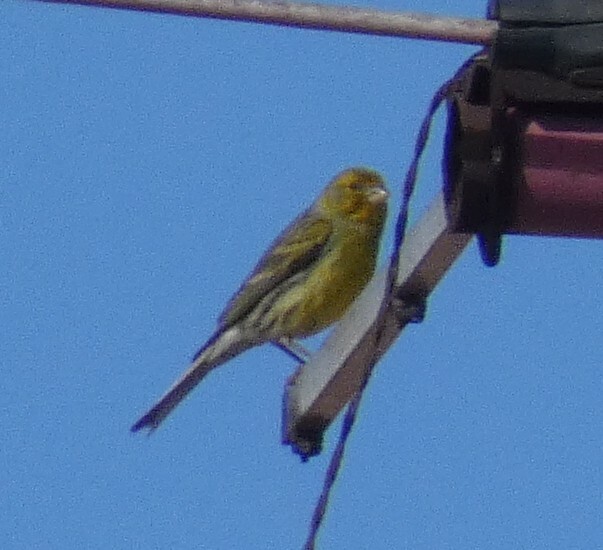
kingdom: Animalia
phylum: Chordata
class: Aves
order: Passeriformes
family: Fringillidae
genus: Serinus
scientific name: Serinus canaria
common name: Atlantic canary
